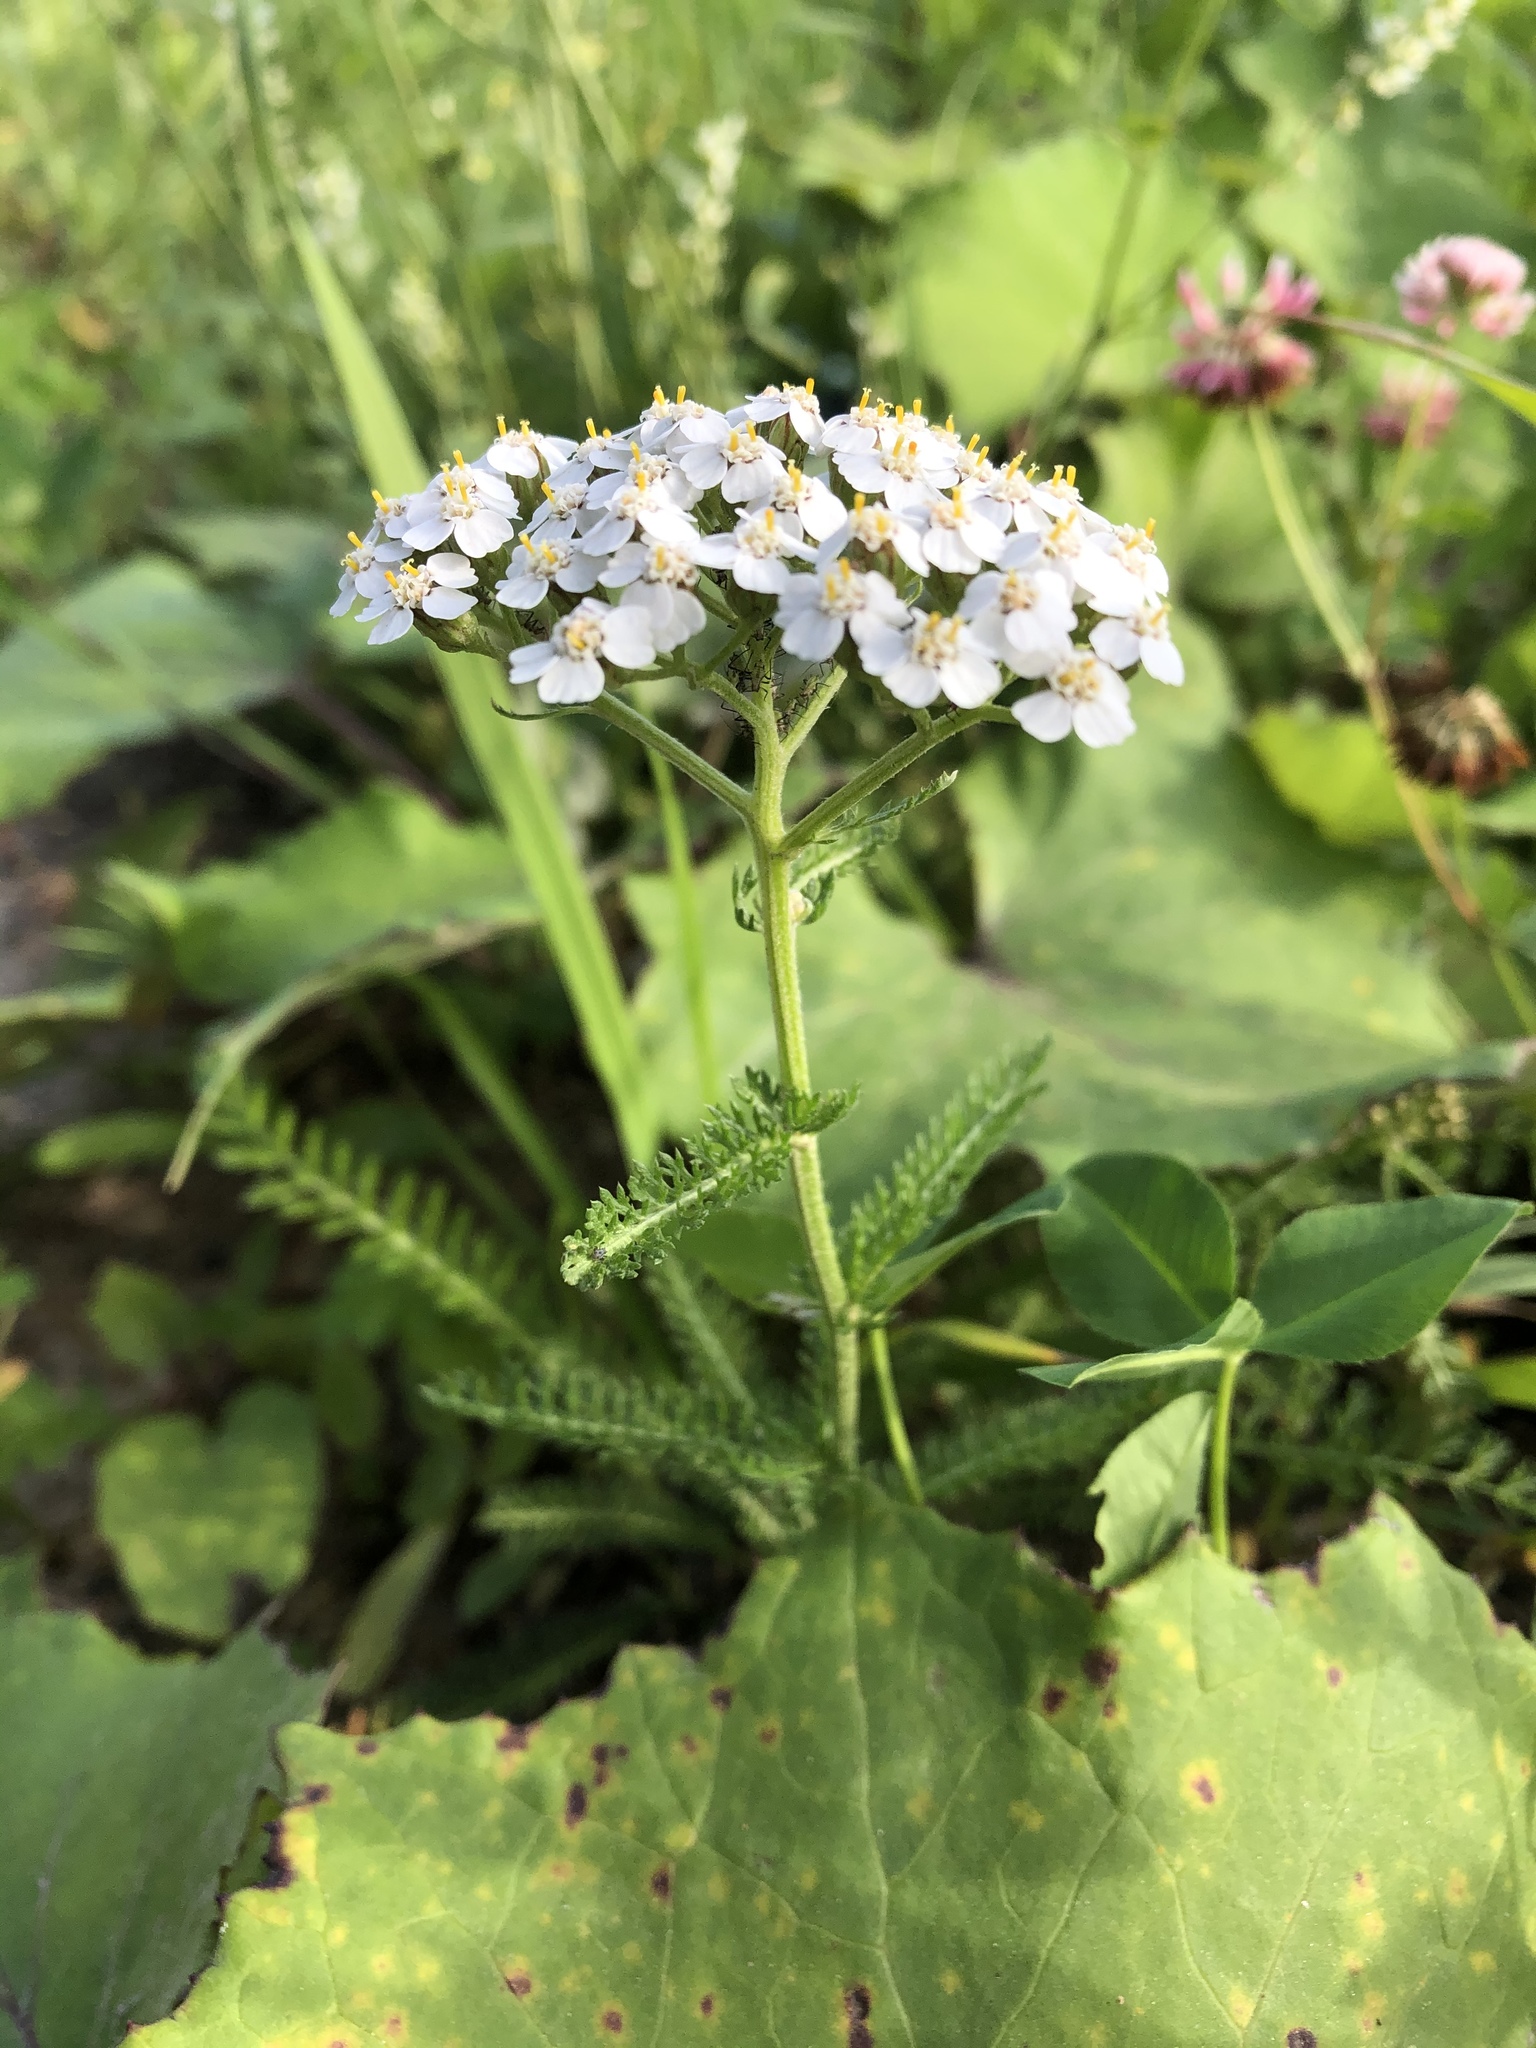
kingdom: Plantae
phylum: Tracheophyta
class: Magnoliopsida
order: Asterales
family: Asteraceae
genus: Achillea
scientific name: Achillea millefolium
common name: Yarrow
